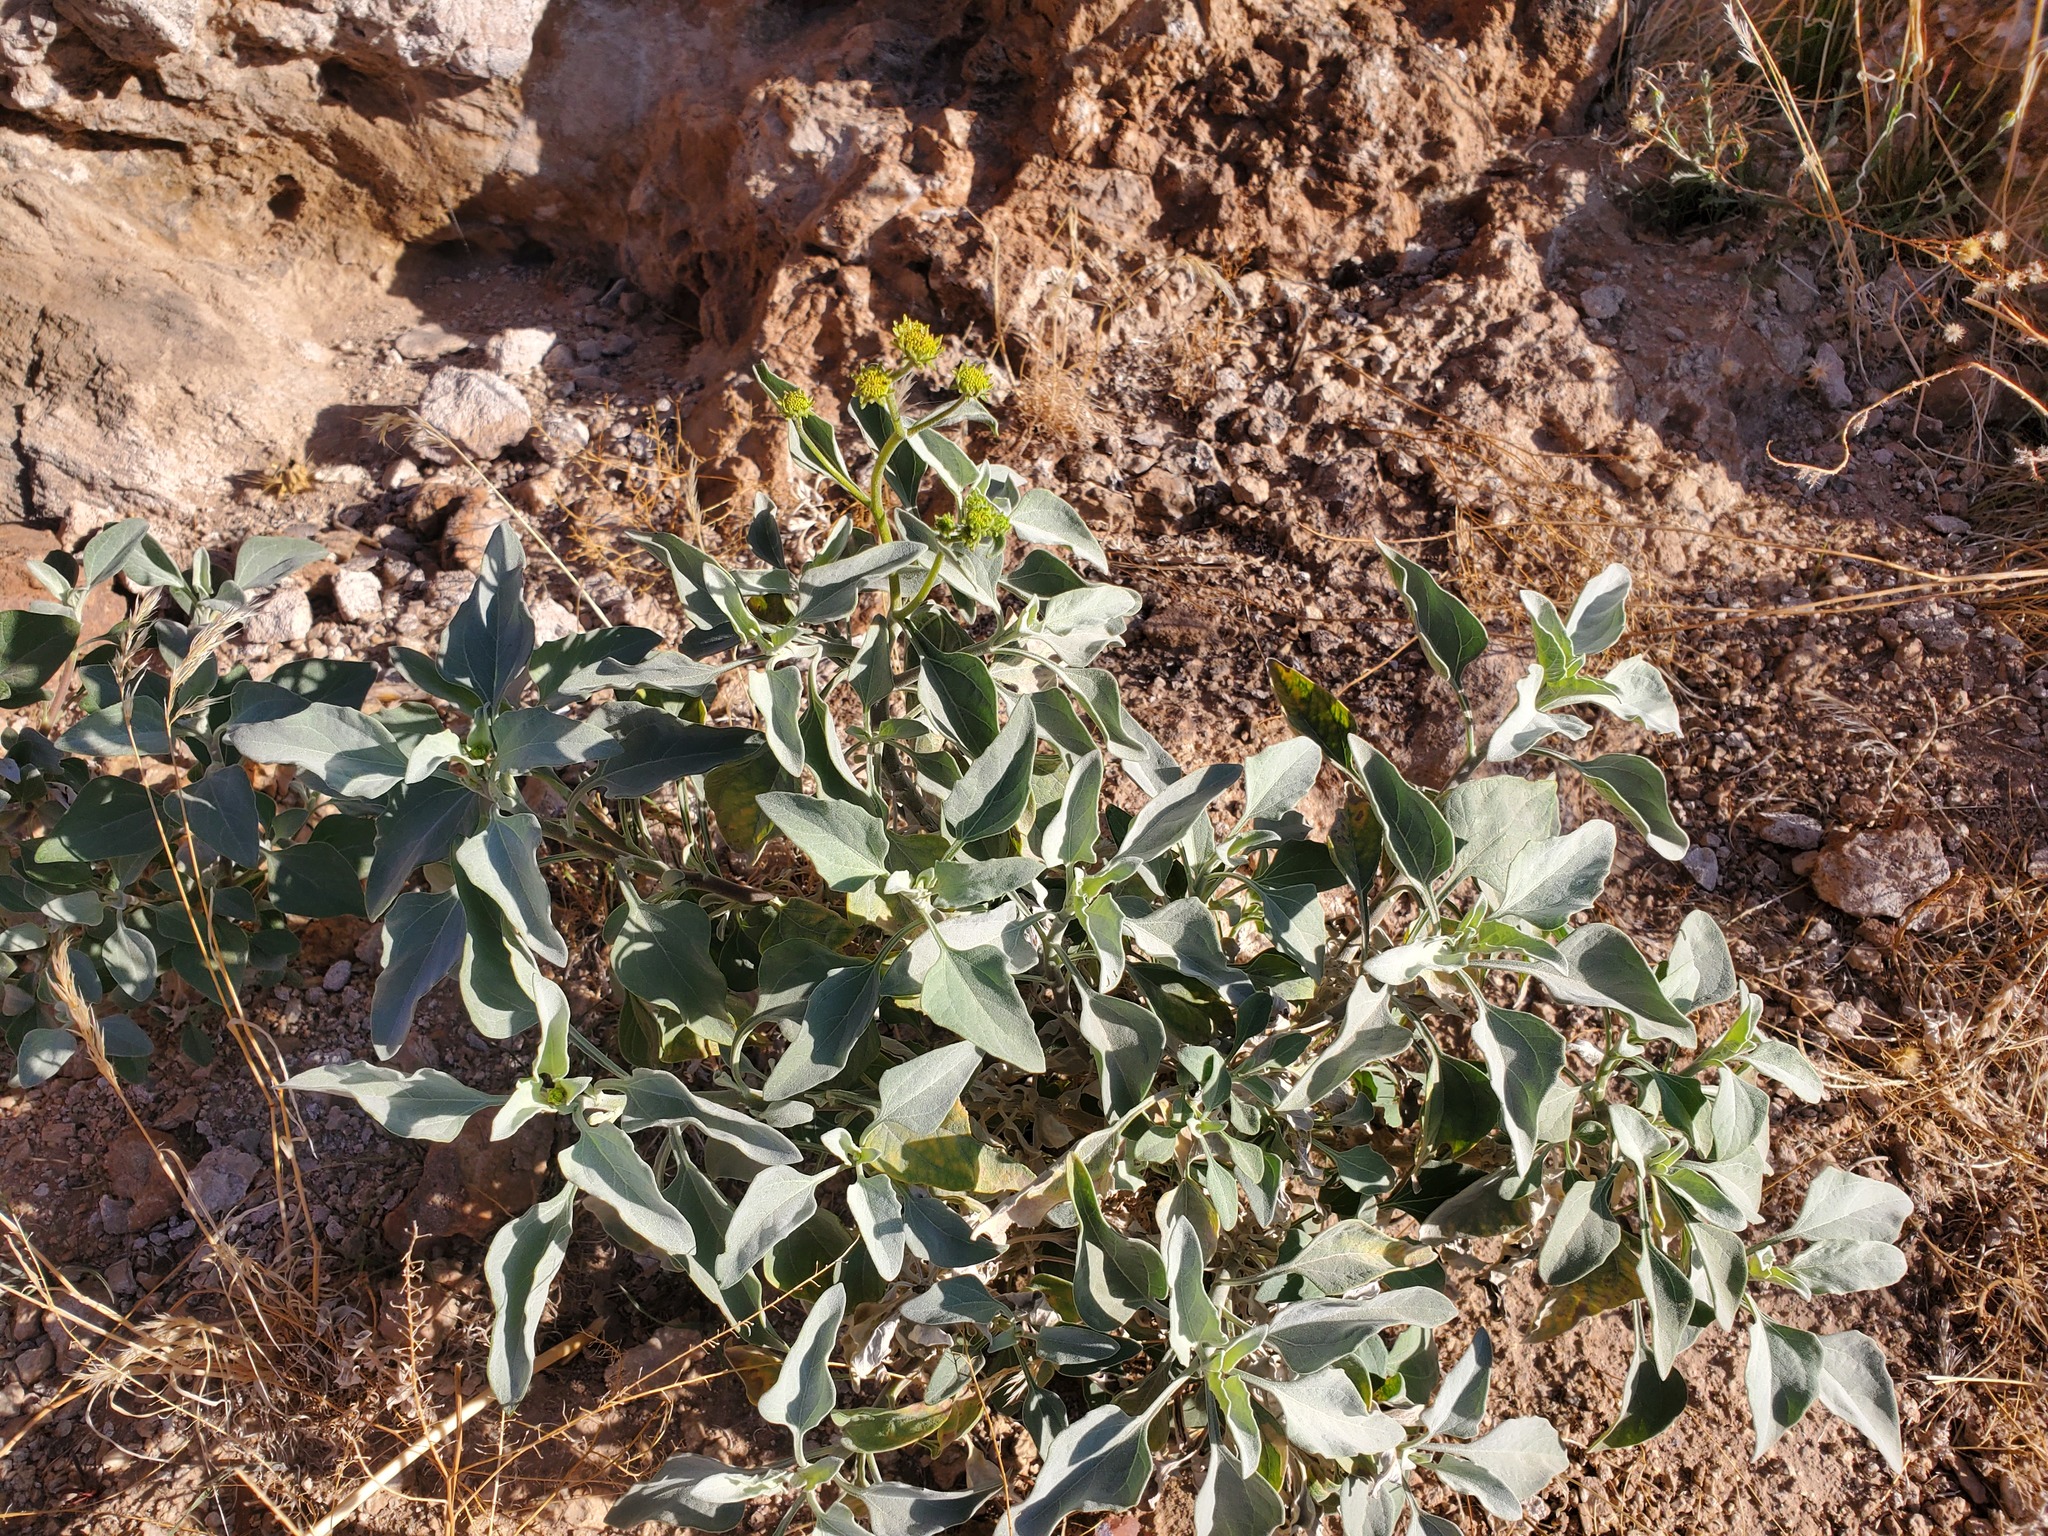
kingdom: Plantae
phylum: Tracheophyta
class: Magnoliopsida
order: Asterales
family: Asteraceae
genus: Encelia
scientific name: Encelia farinosa
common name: Brittlebush
